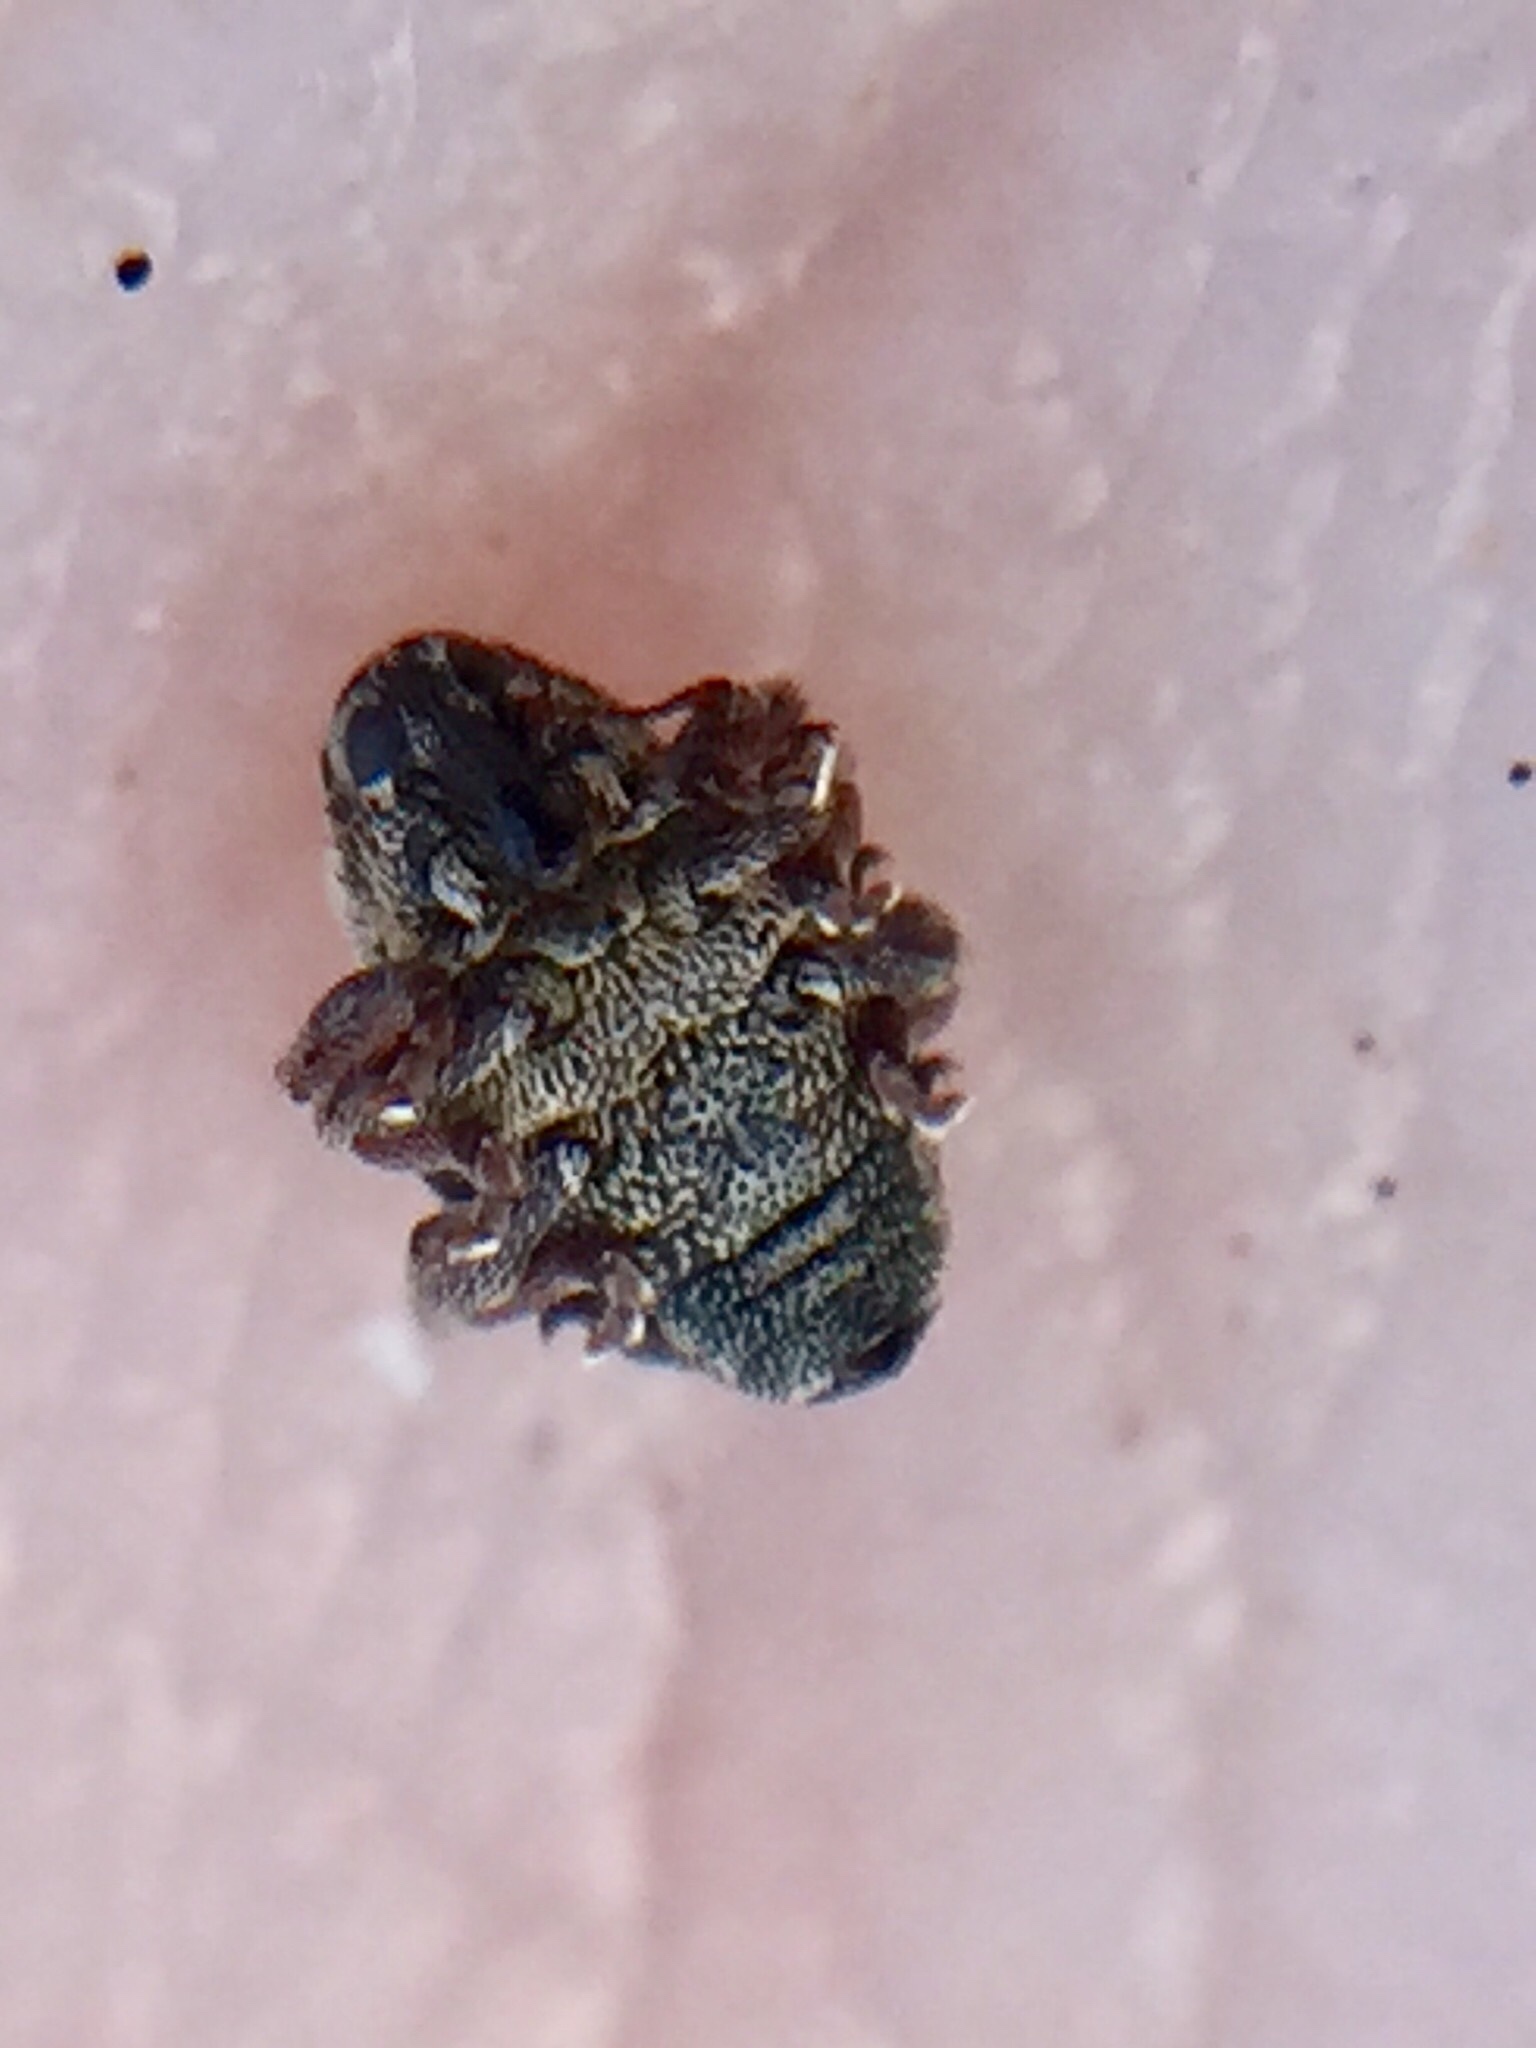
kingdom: Animalia
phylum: Arthropoda
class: Insecta
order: Coleoptera
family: Curculionidae
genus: Rhinoncus
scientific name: Rhinoncus australis
